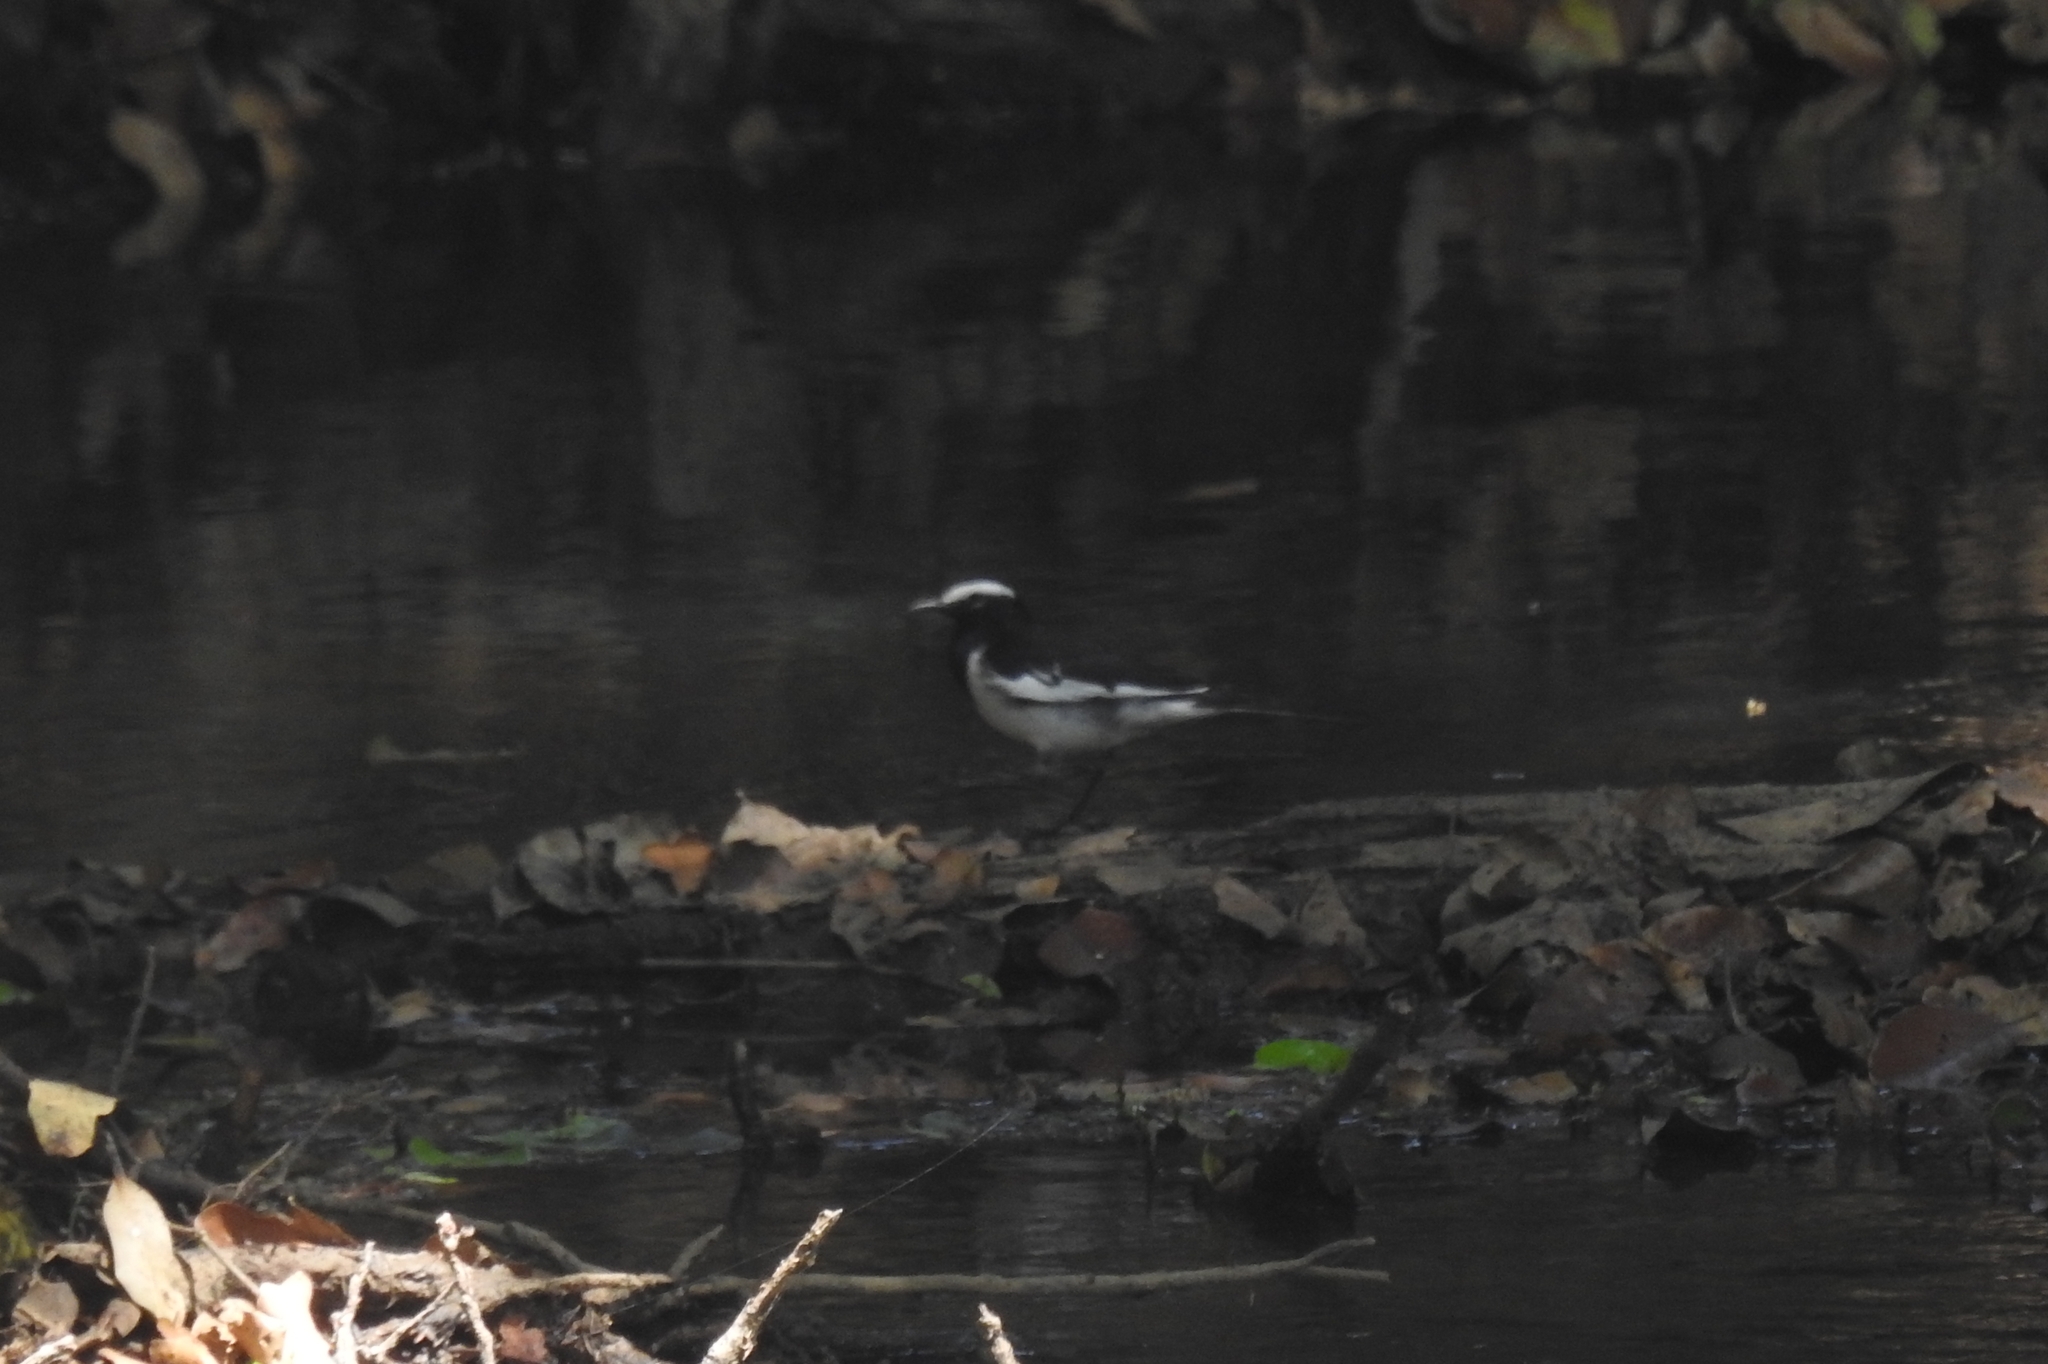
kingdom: Animalia
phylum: Chordata
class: Aves
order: Passeriformes
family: Motacillidae
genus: Motacilla
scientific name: Motacilla maderaspatensis
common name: White-browed wagtail
